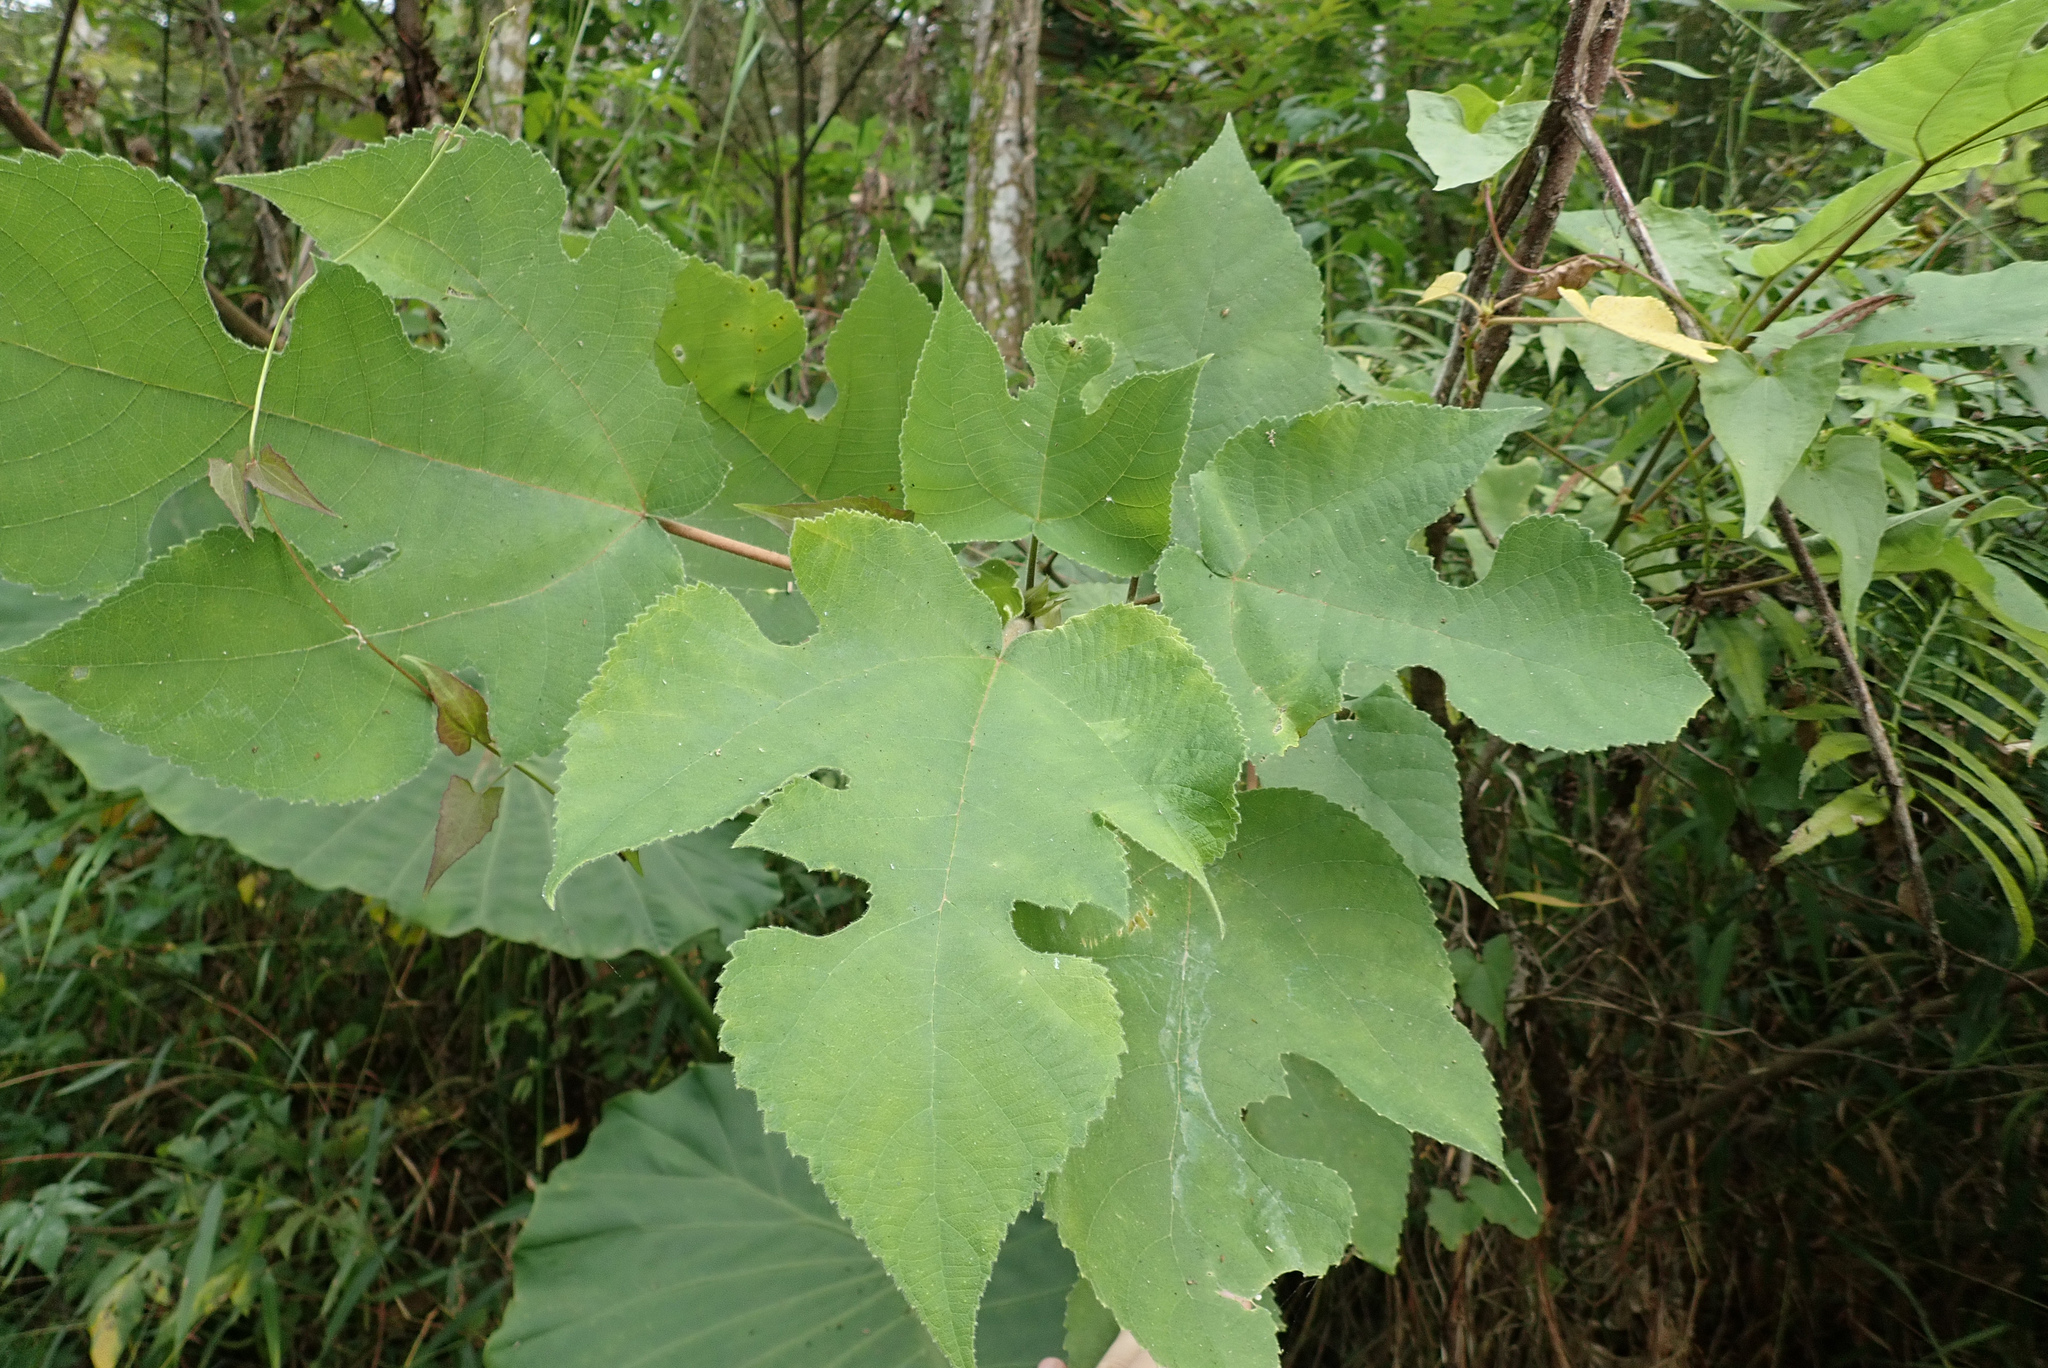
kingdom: Plantae
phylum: Tracheophyta
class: Magnoliopsida
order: Rosales
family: Moraceae
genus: Broussonetia
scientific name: Broussonetia papyrifera
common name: Paper mulberry
